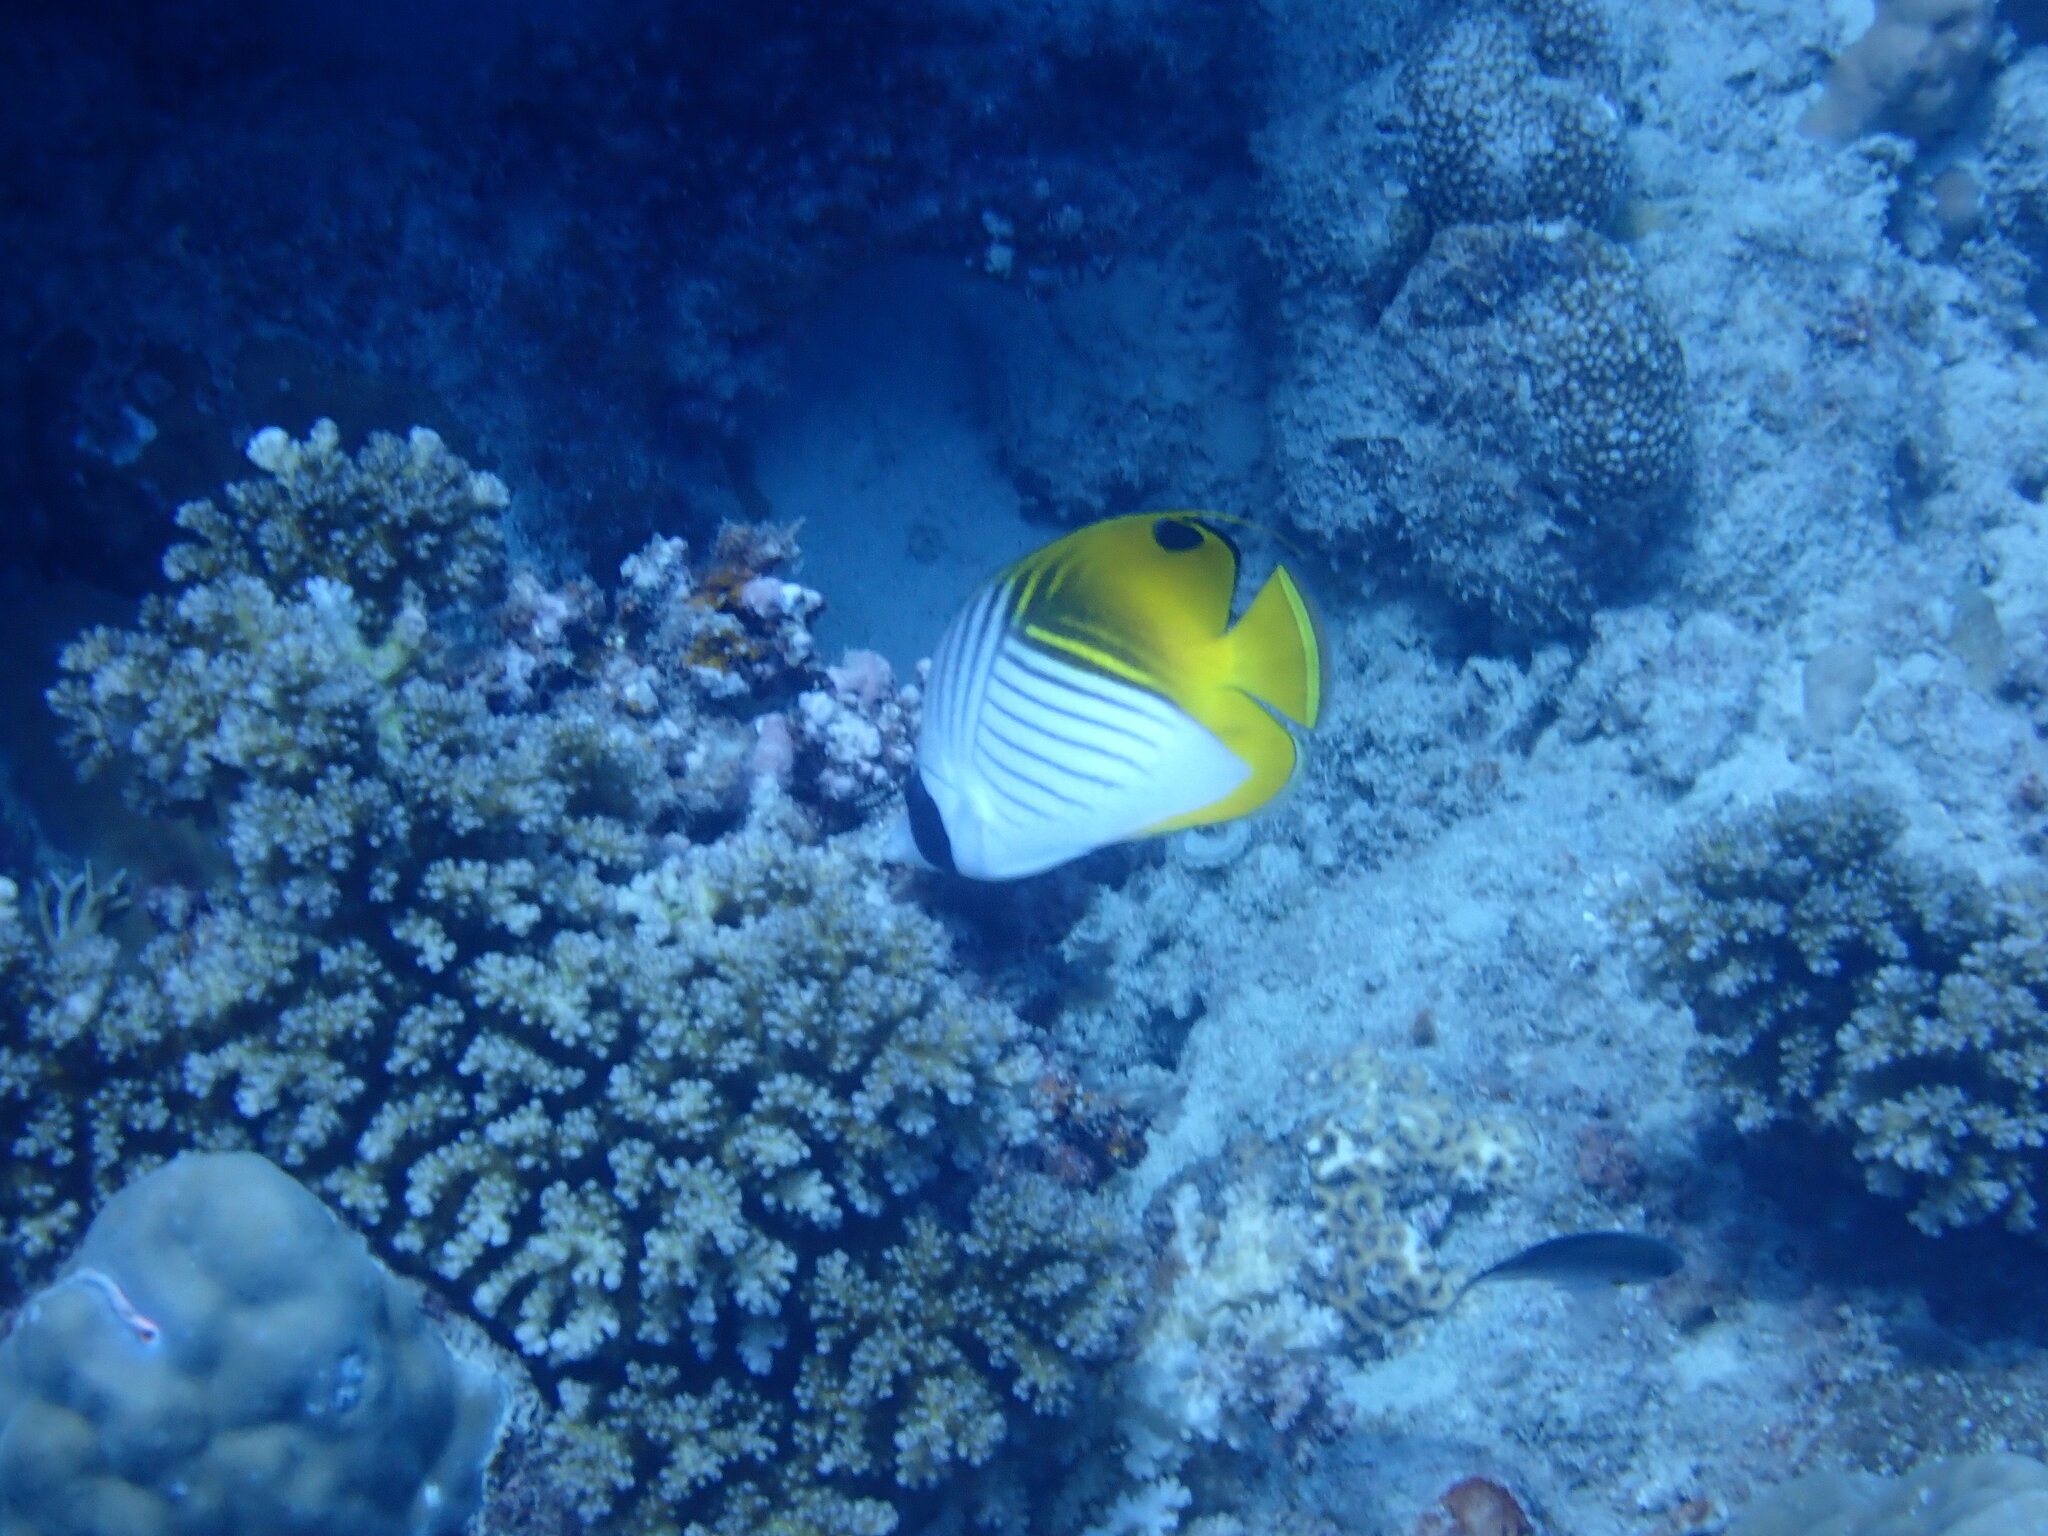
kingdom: Animalia
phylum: Chordata
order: Perciformes
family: Chaetodontidae
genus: Chaetodon
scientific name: Chaetodon auriga
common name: Threadfin butterflyfish
